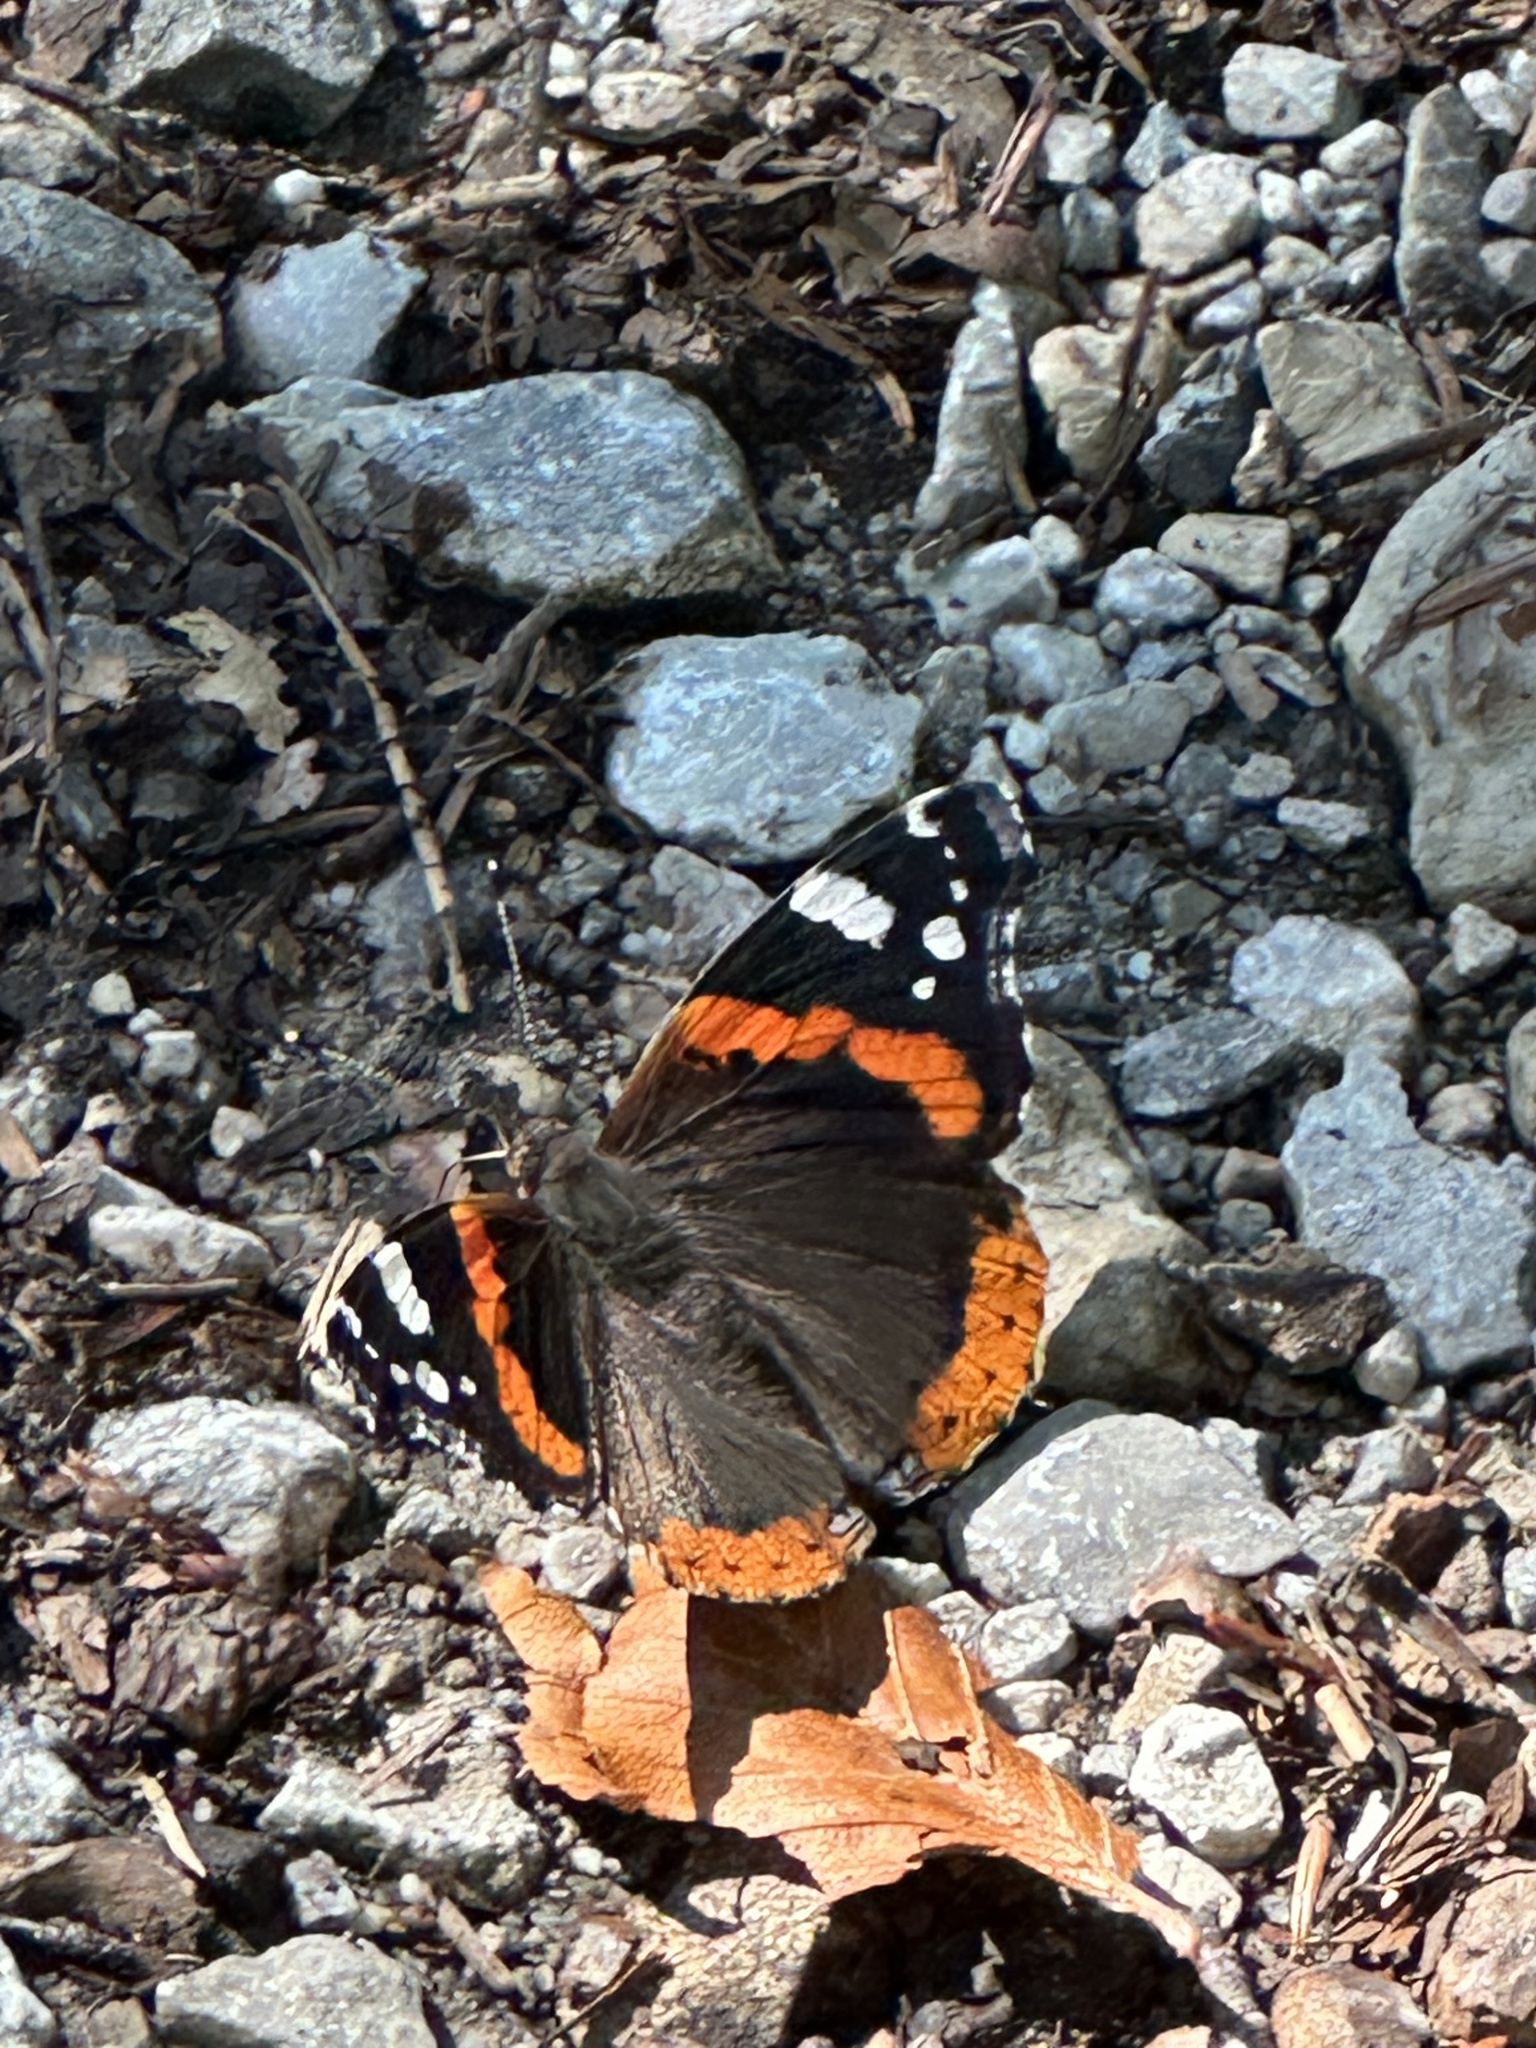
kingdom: Animalia
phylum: Arthropoda
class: Insecta
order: Lepidoptera
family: Nymphalidae
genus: Vanessa
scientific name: Vanessa atalanta
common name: Red admiral
